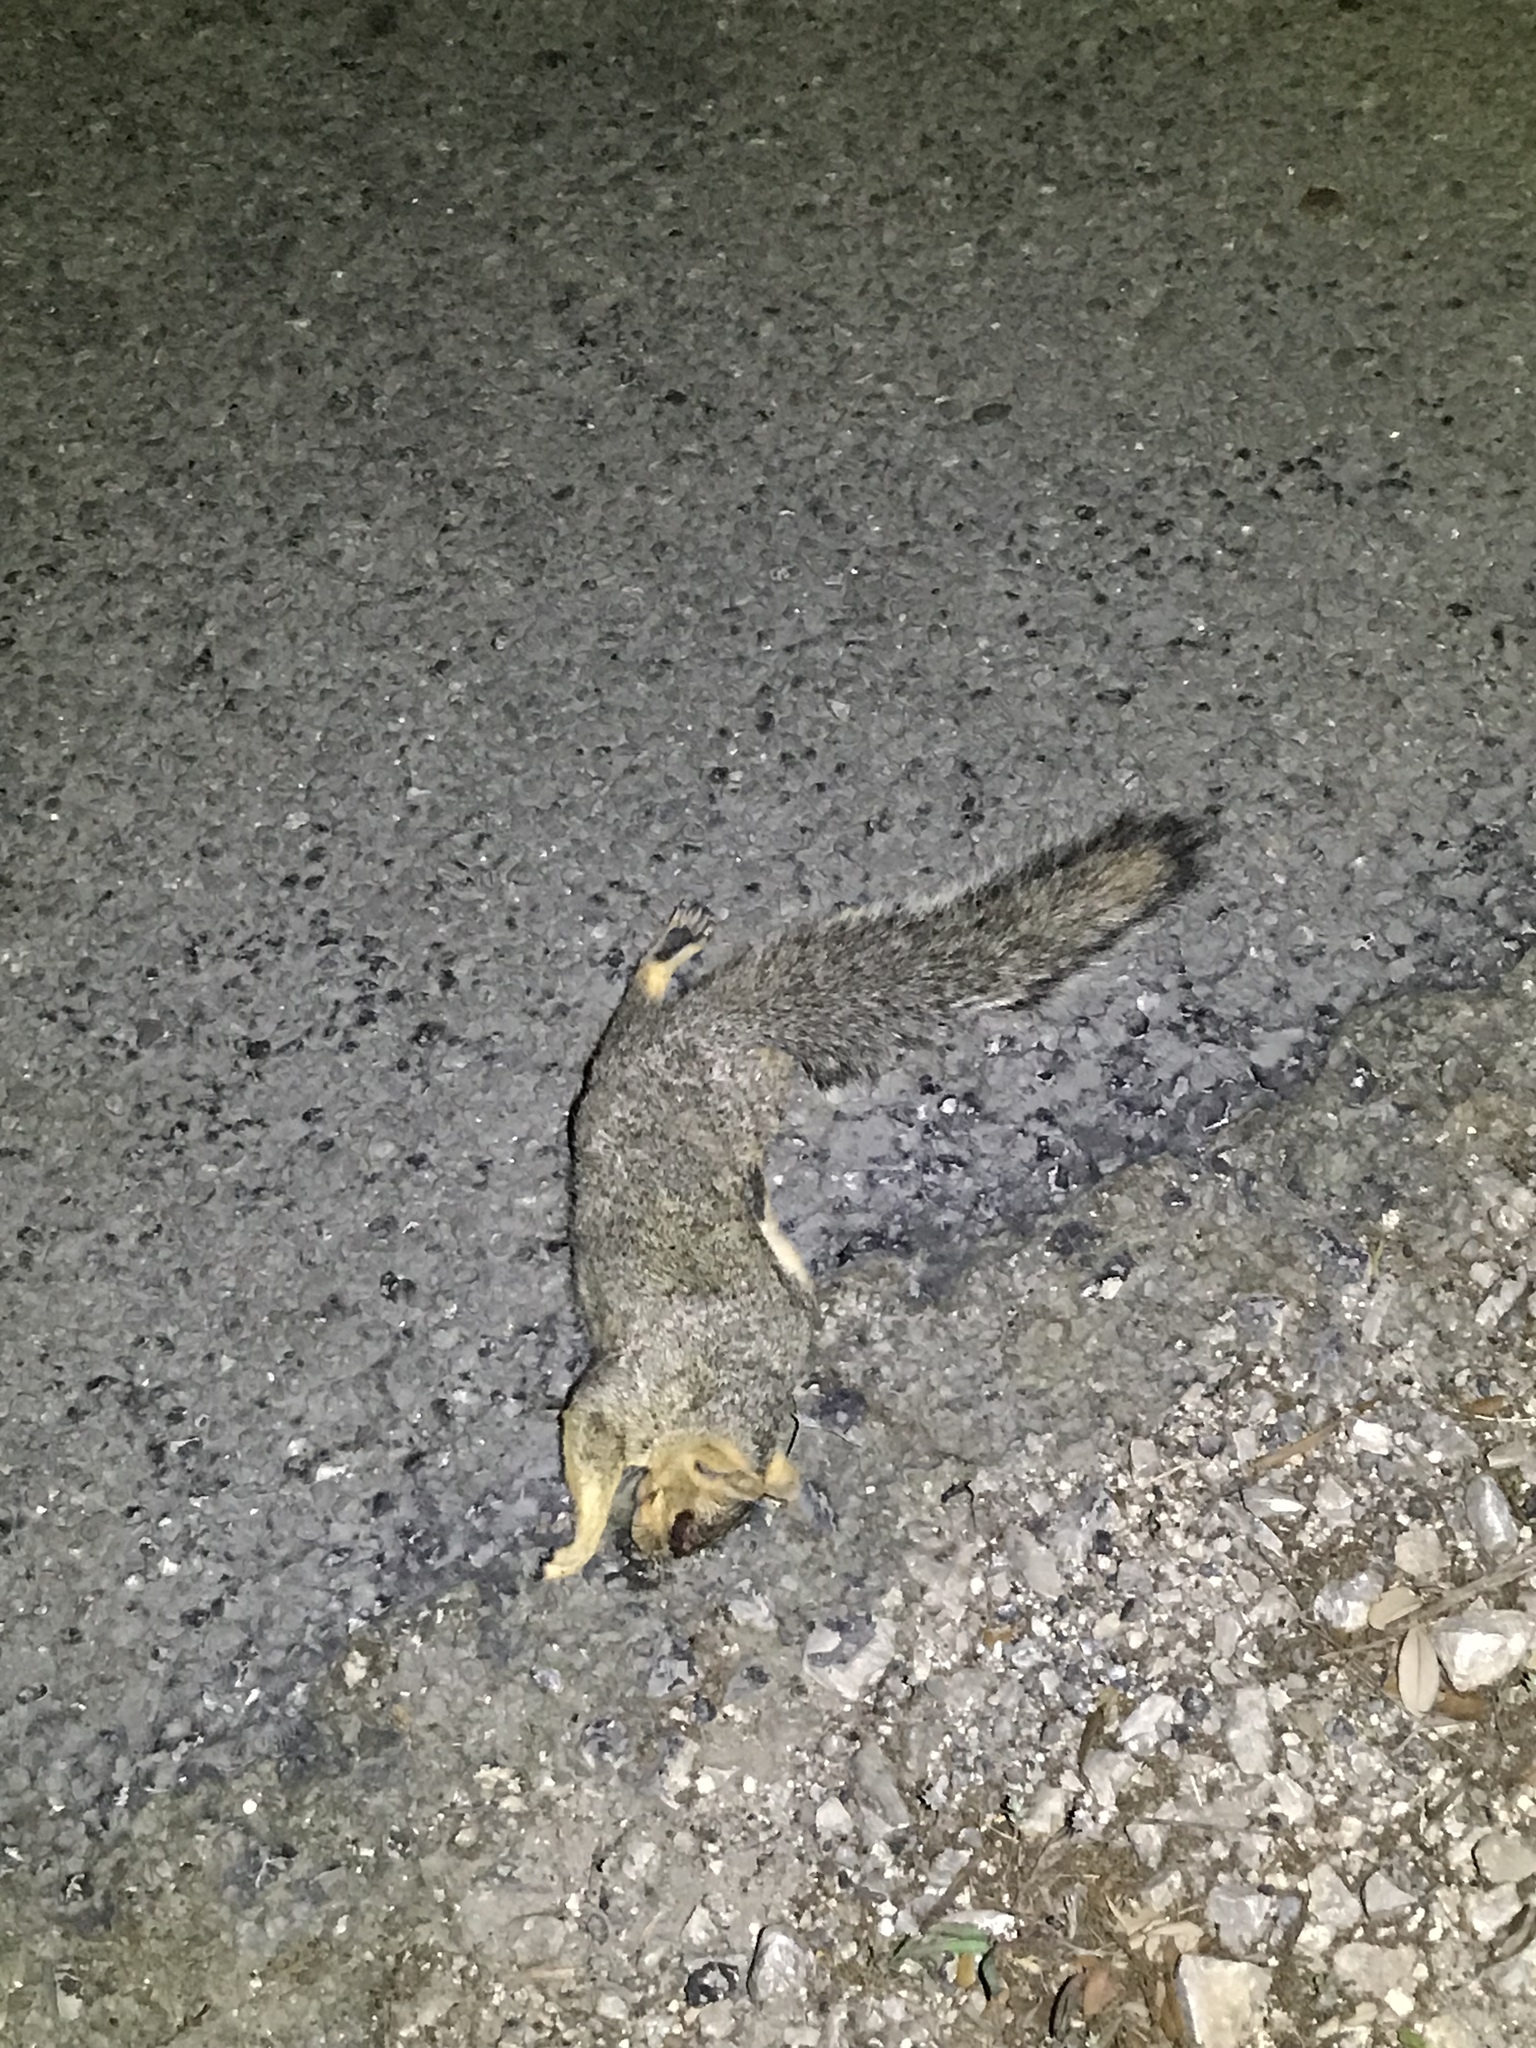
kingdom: Animalia
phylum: Chordata
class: Mammalia
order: Rodentia
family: Sciuridae
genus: Sciurus
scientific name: Sciurus niger
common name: Fox squirrel
